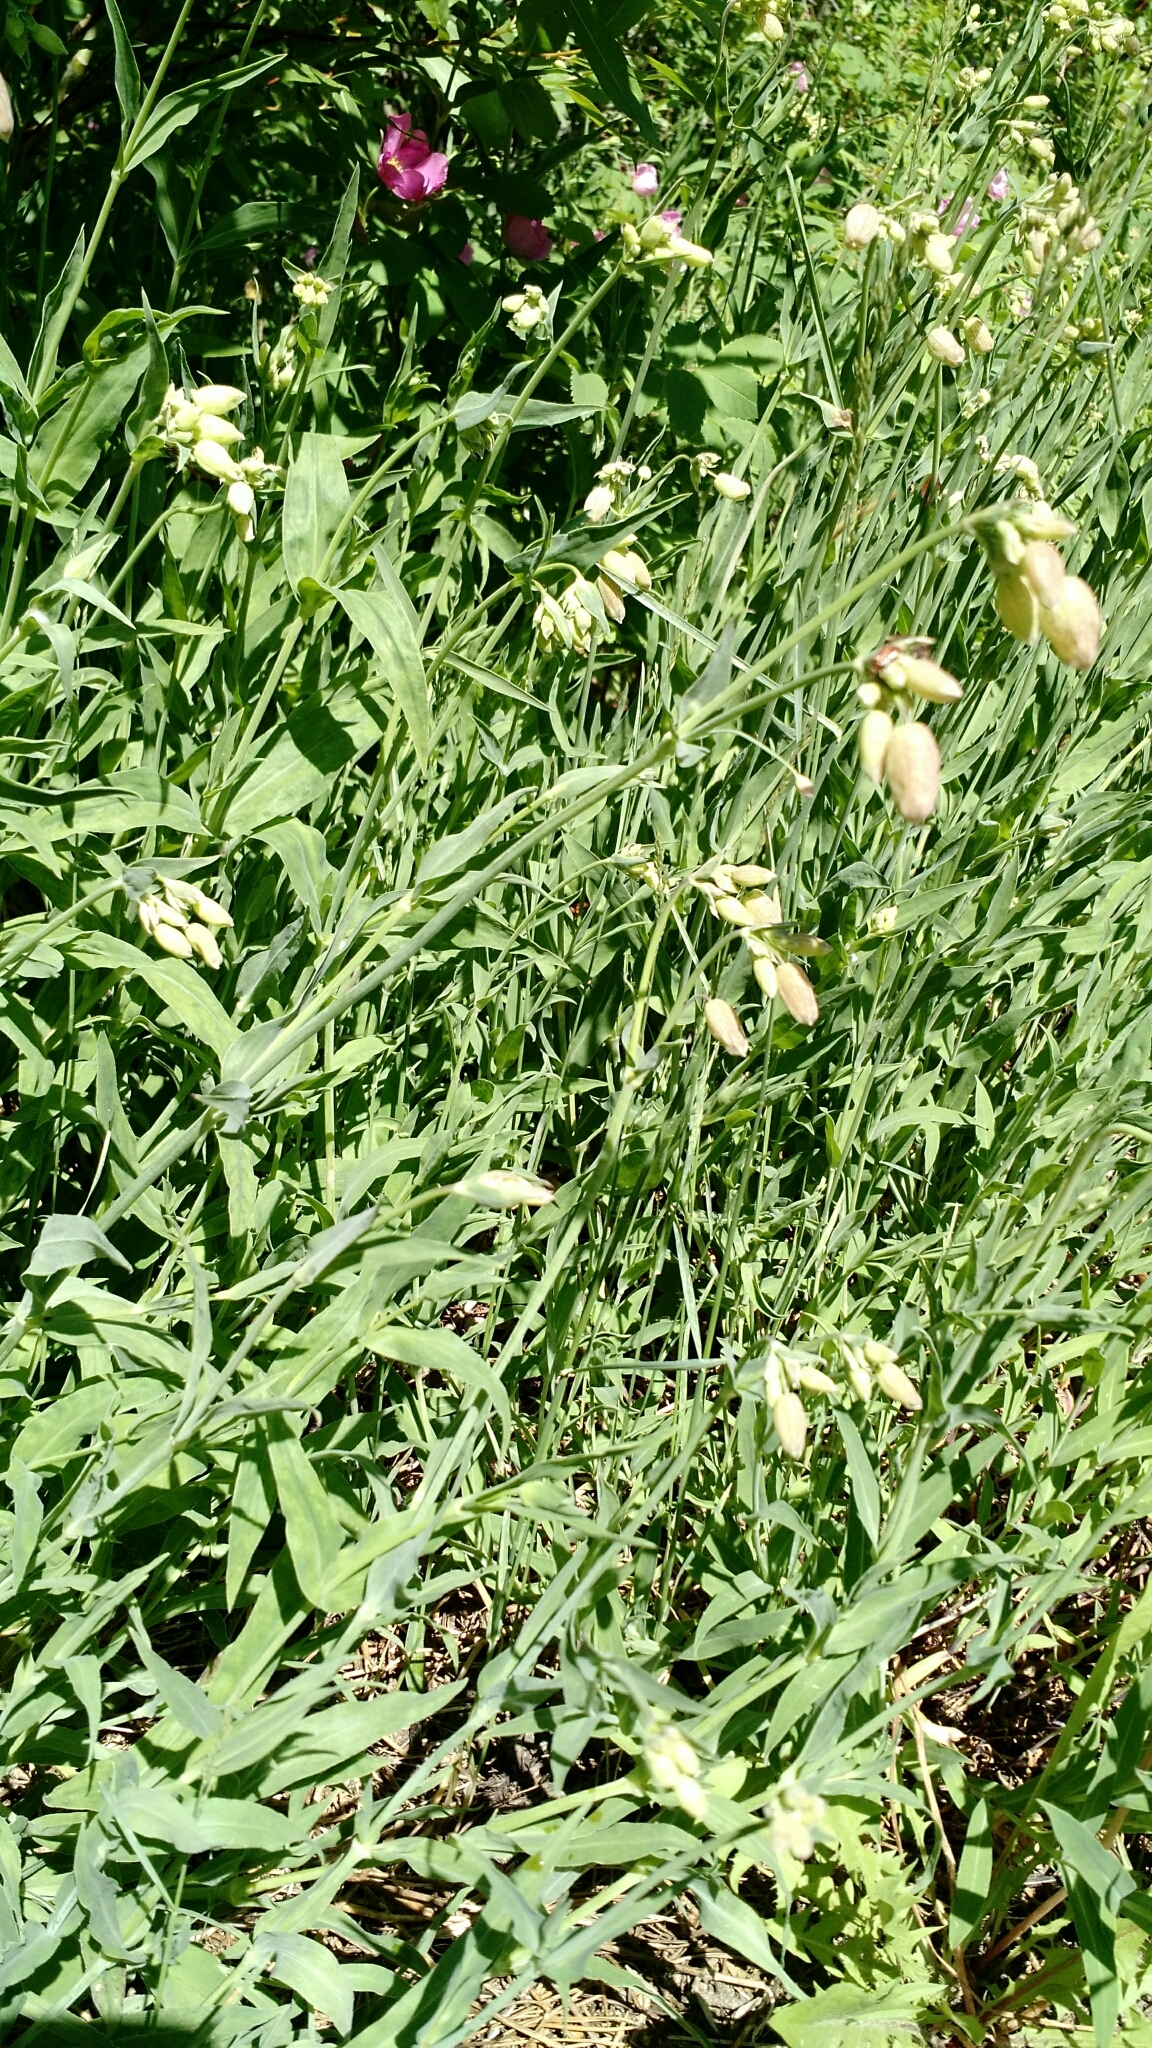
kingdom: Plantae
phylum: Tracheophyta
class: Magnoliopsida
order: Caryophyllales
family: Caryophyllaceae
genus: Silene
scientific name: Silene vulgaris
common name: Bladder campion
